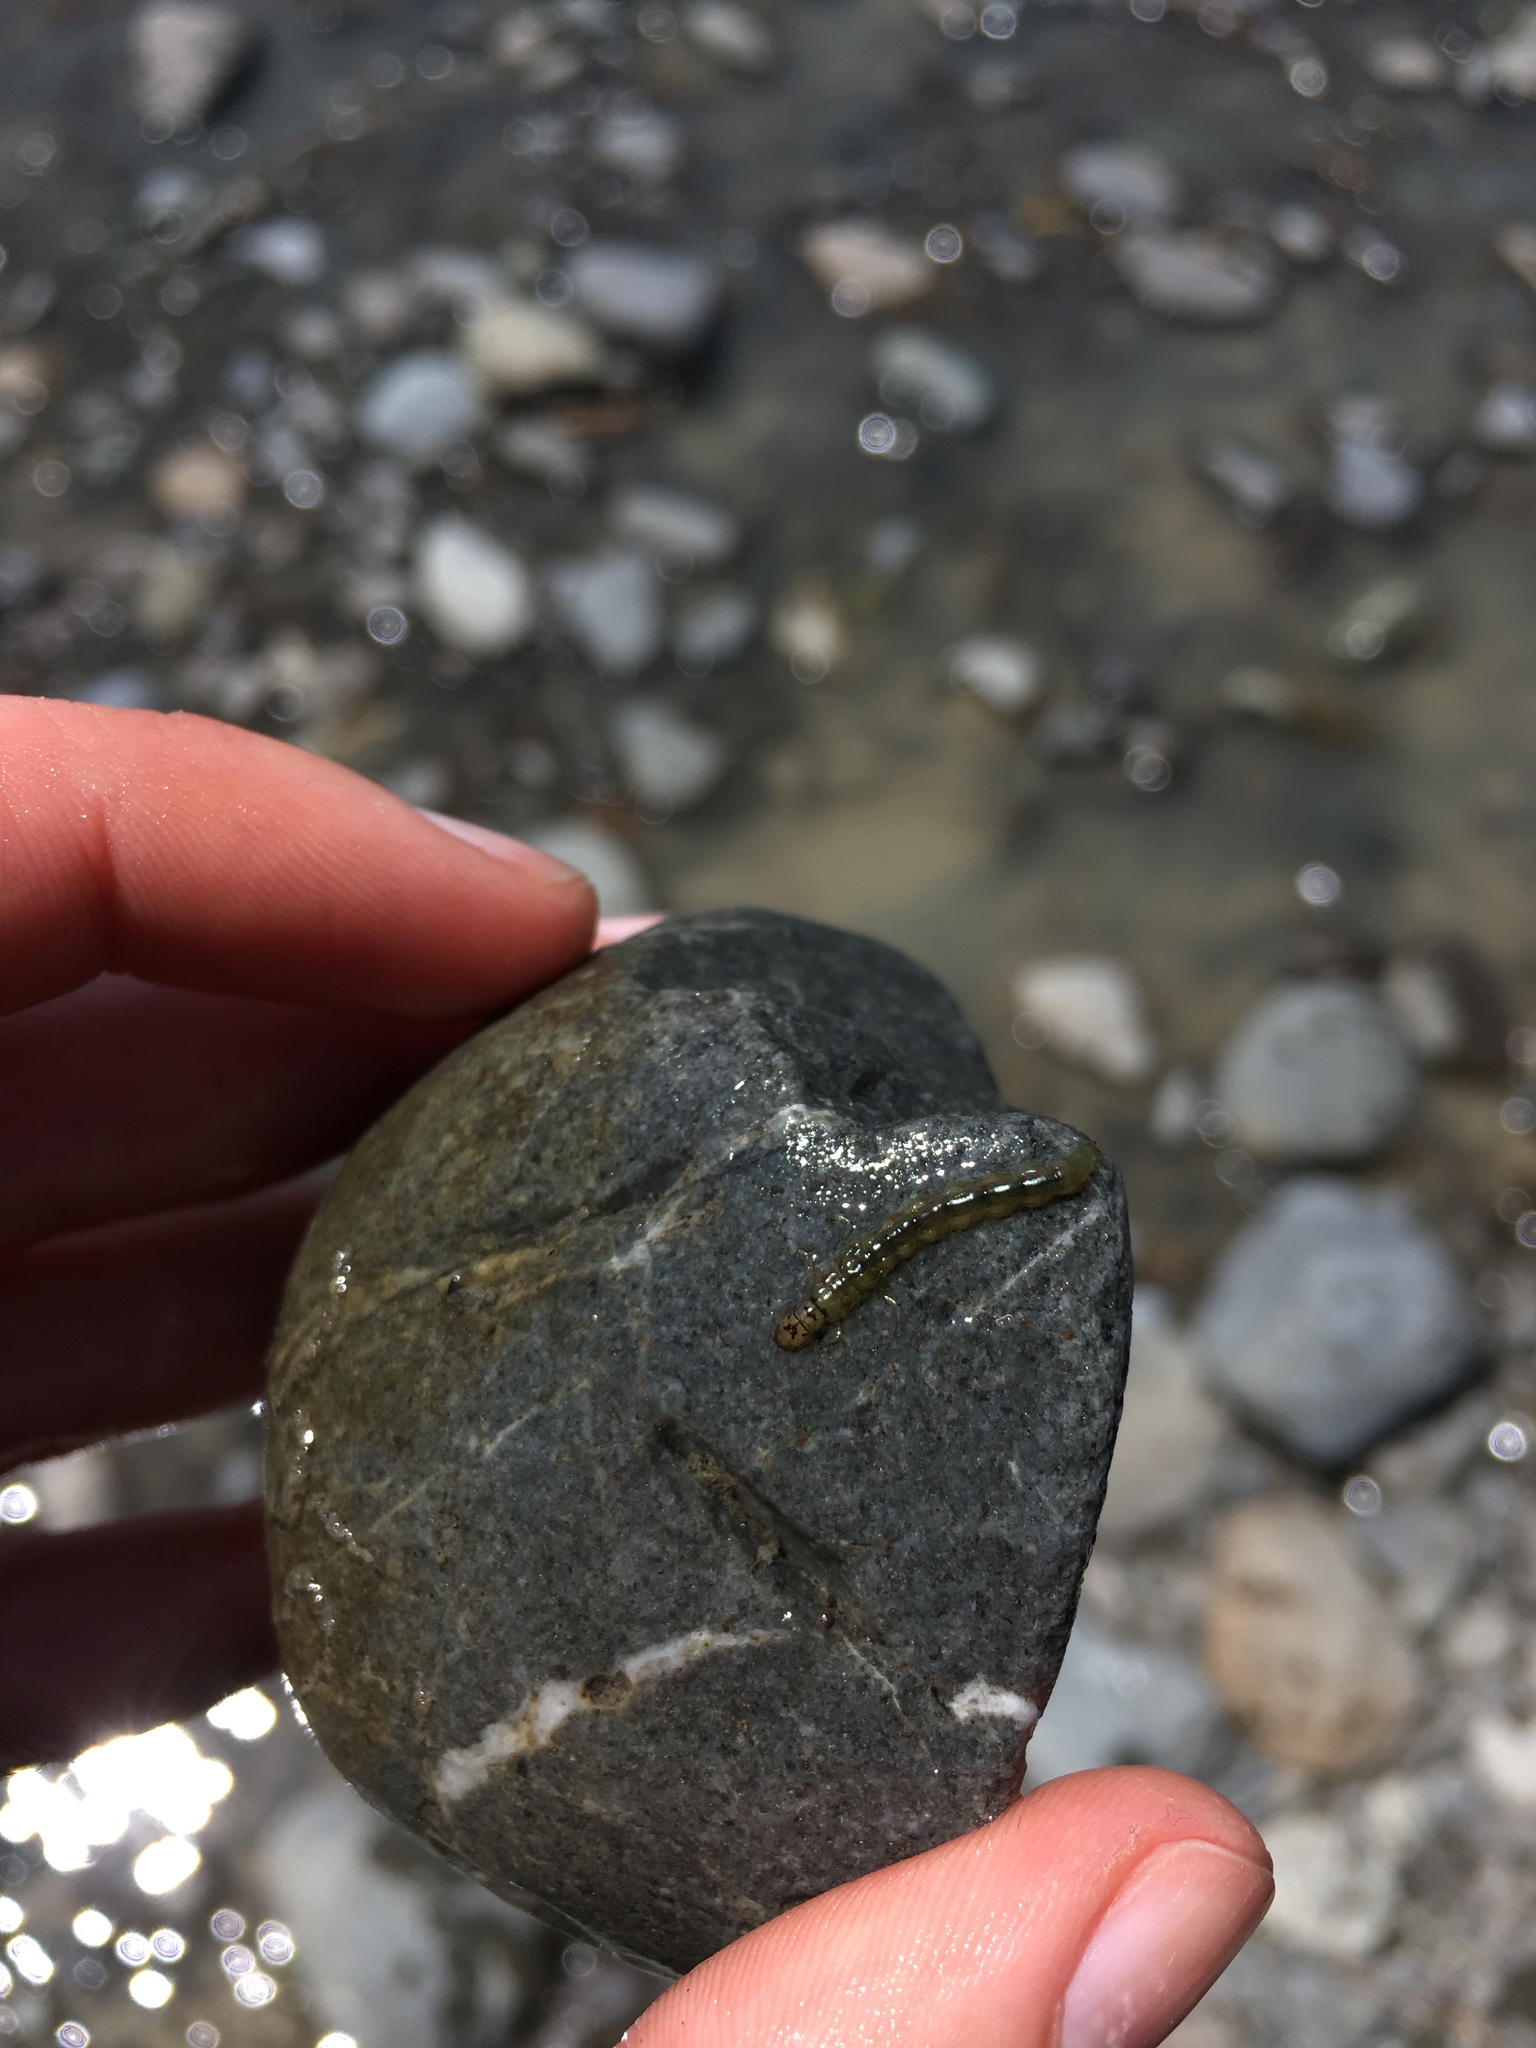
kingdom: Animalia
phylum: Arthropoda
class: Insecta
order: Trichoptera
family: Hydrobiosidae
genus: Hydrobiosis
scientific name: Hydrobiosis umbripennis
